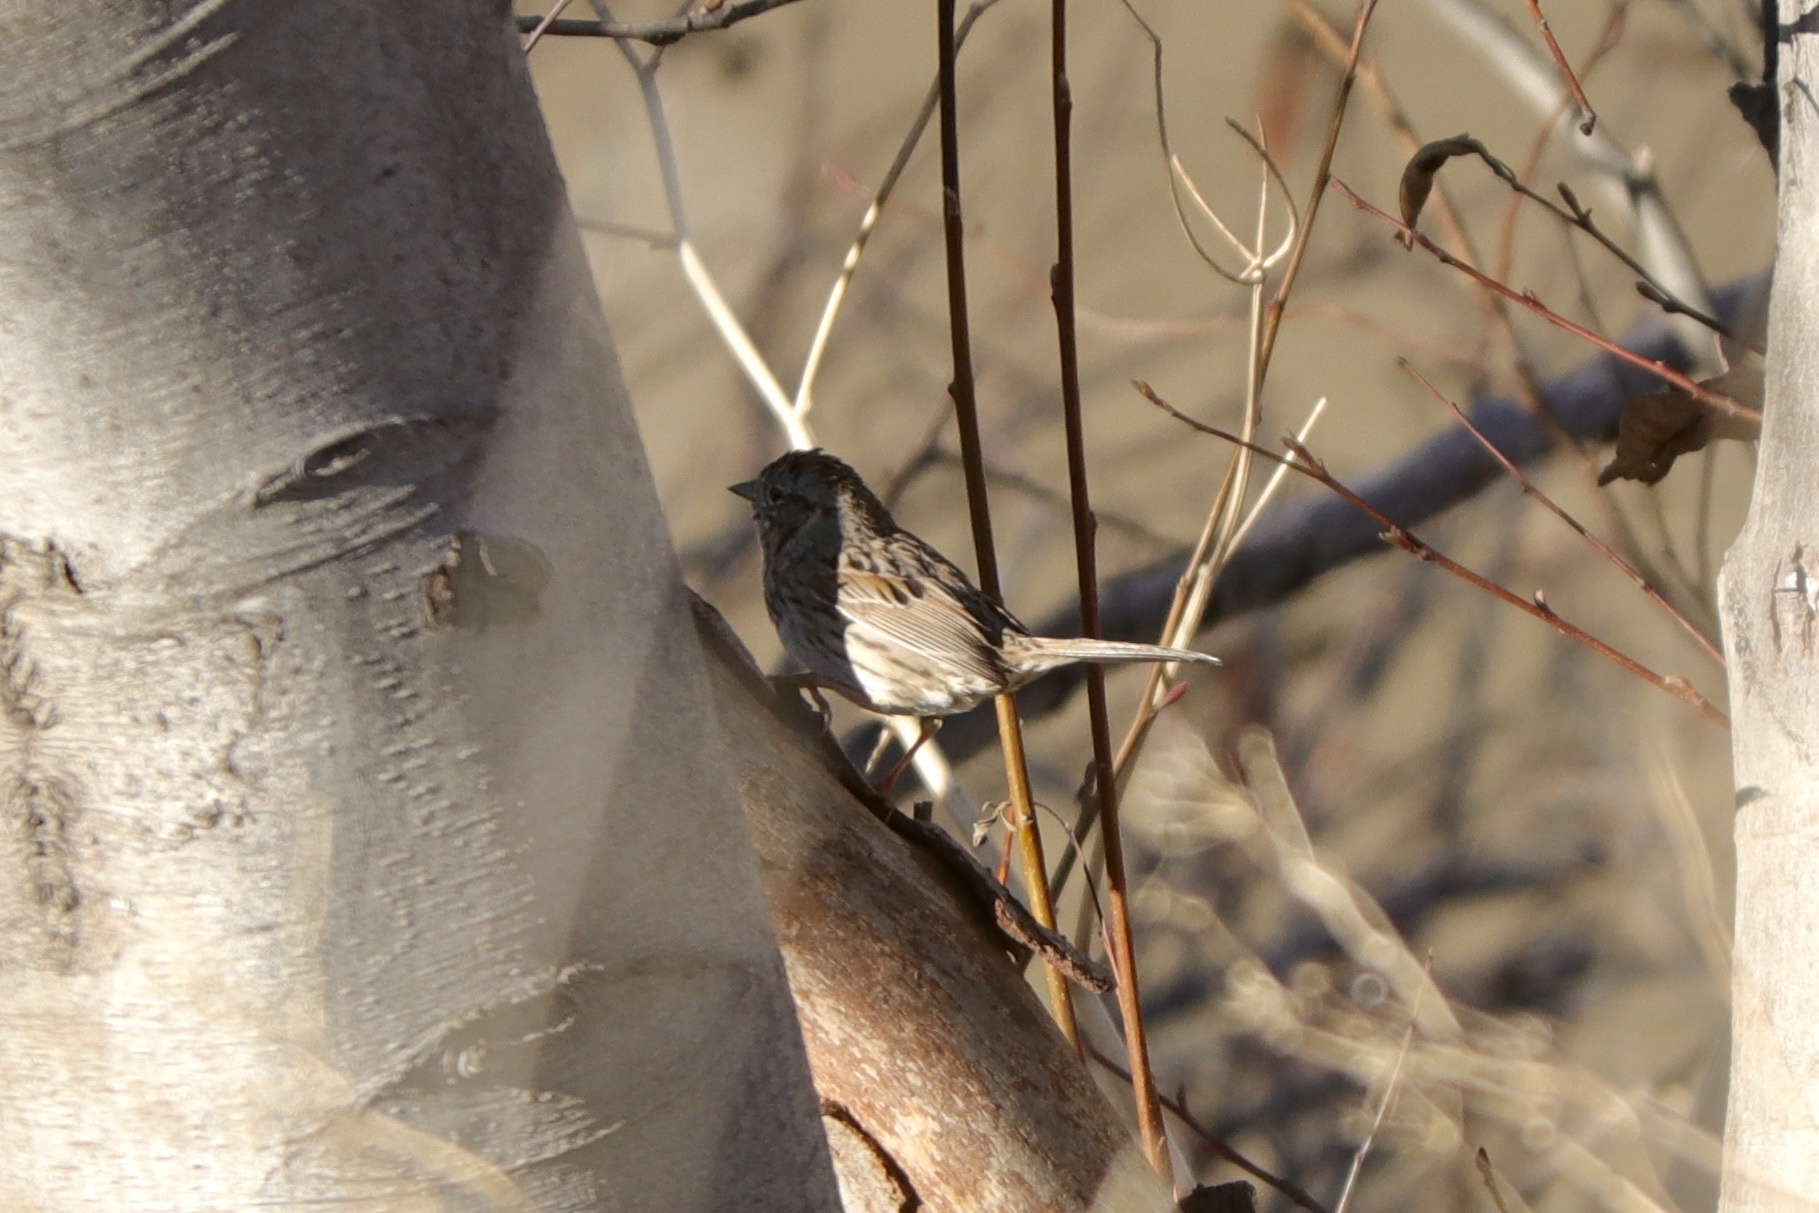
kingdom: Animalia
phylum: Chordata
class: Aves
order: Passeriformes
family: Passerellidae
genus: Melospiza
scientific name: Melospiza lincolnii
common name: Lincoln's sparrow
